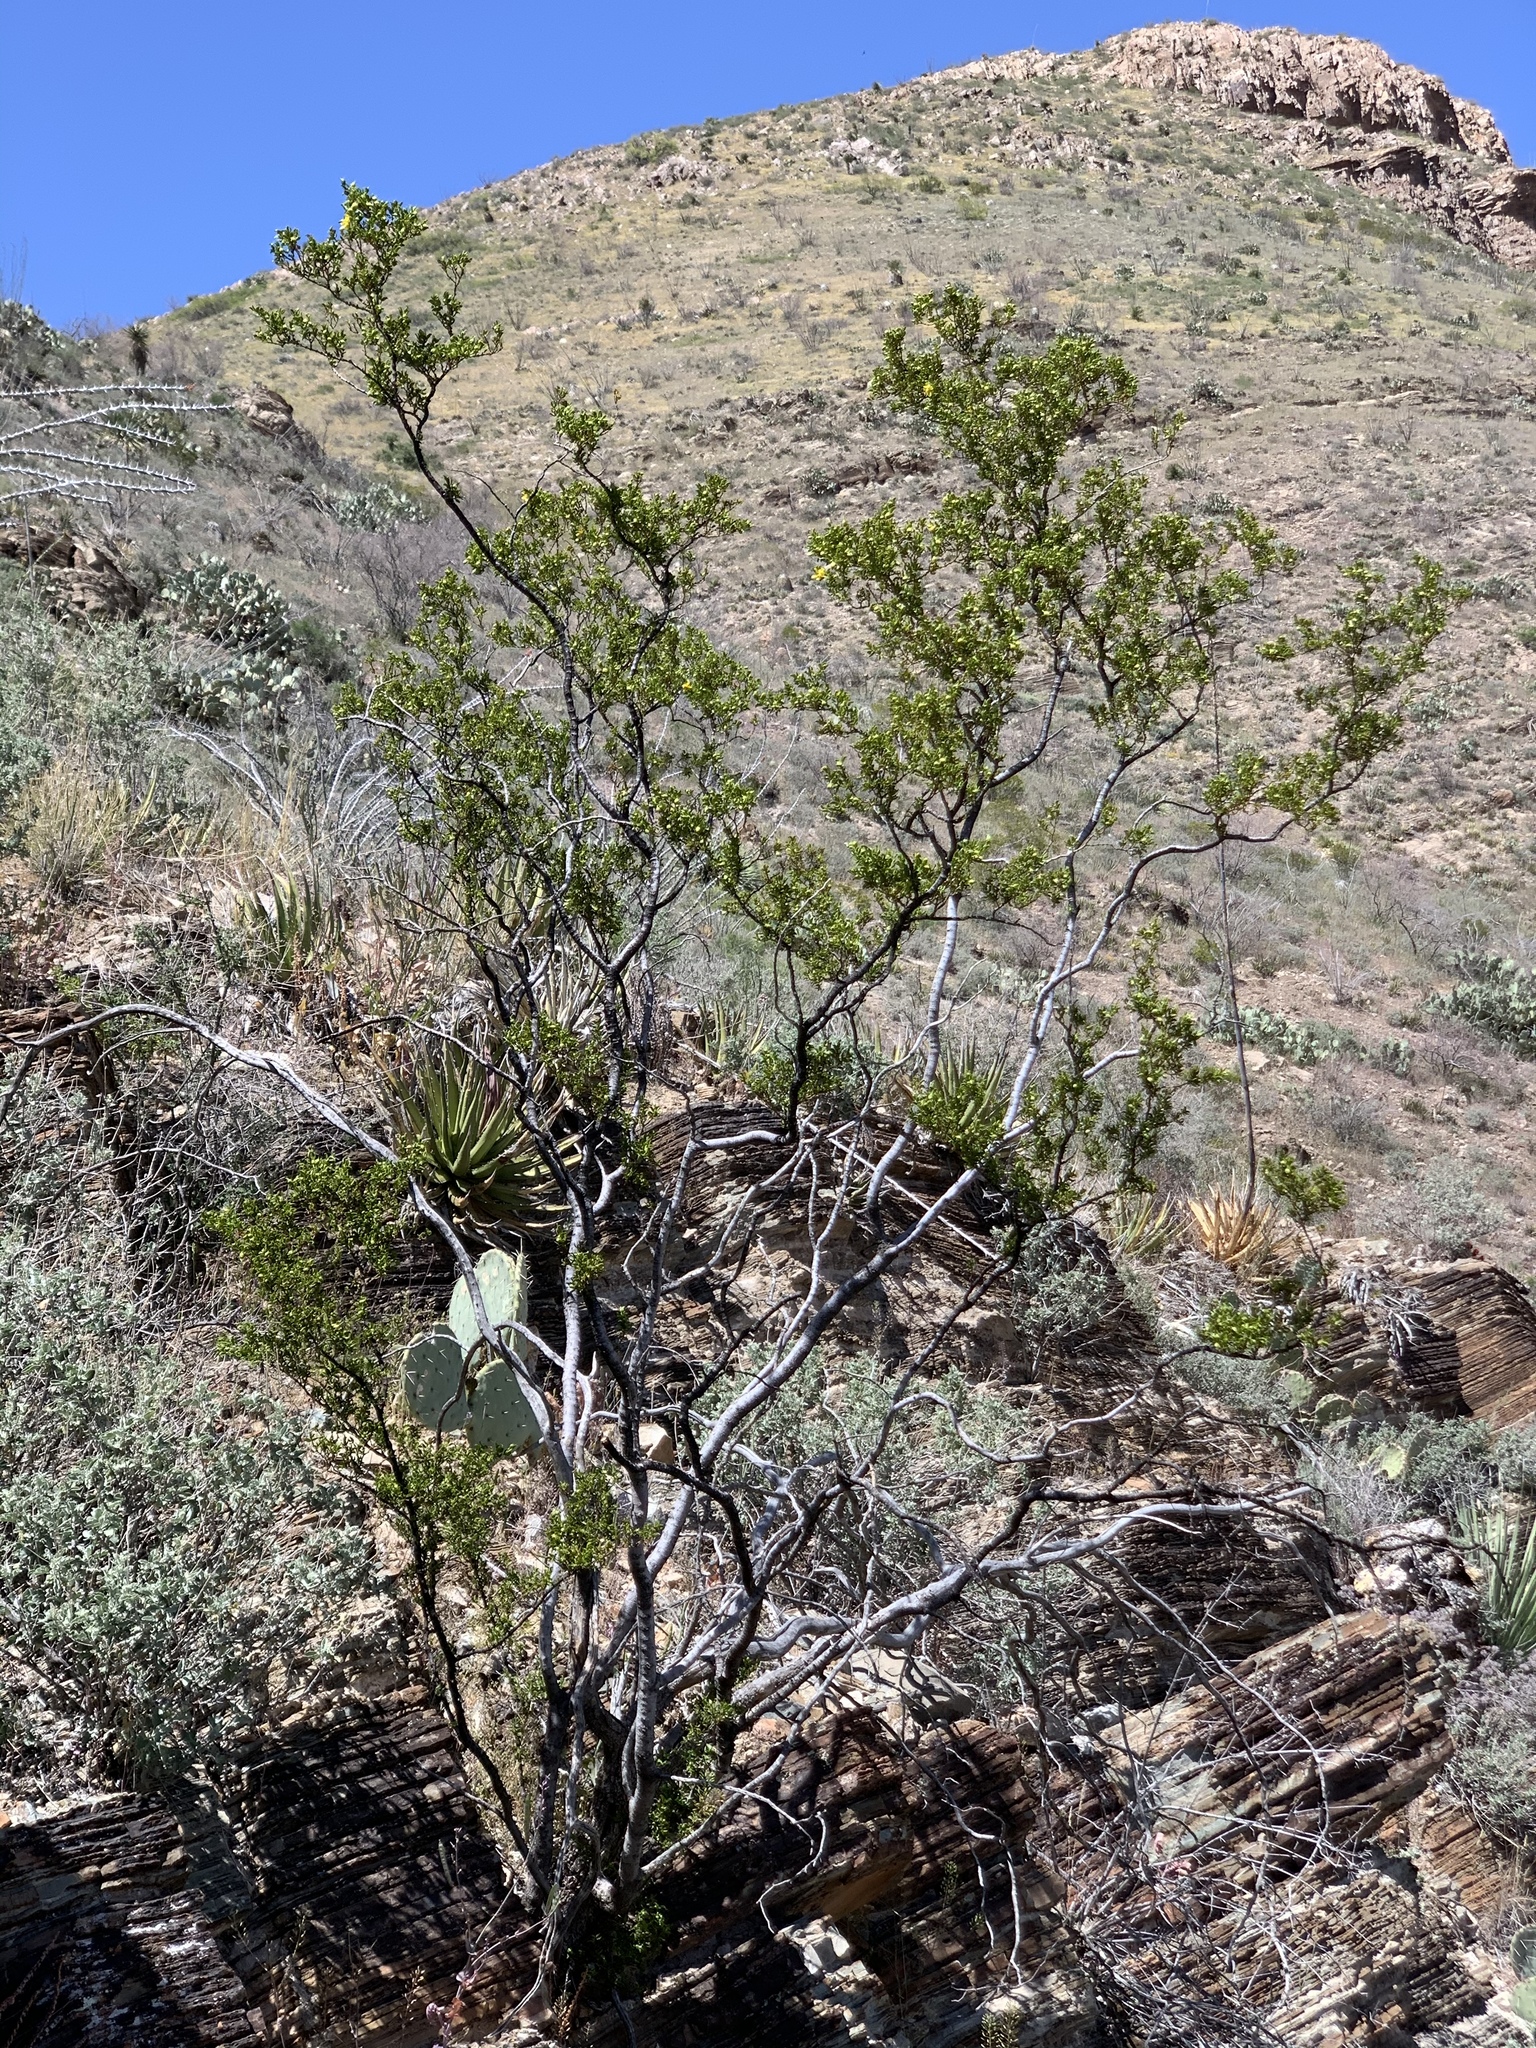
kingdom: Plantae
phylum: Tracheophyta
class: Magnoliopsida
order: Zygophyllales
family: Zygophyllaceae
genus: Larrea
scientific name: Larrea tridentata
